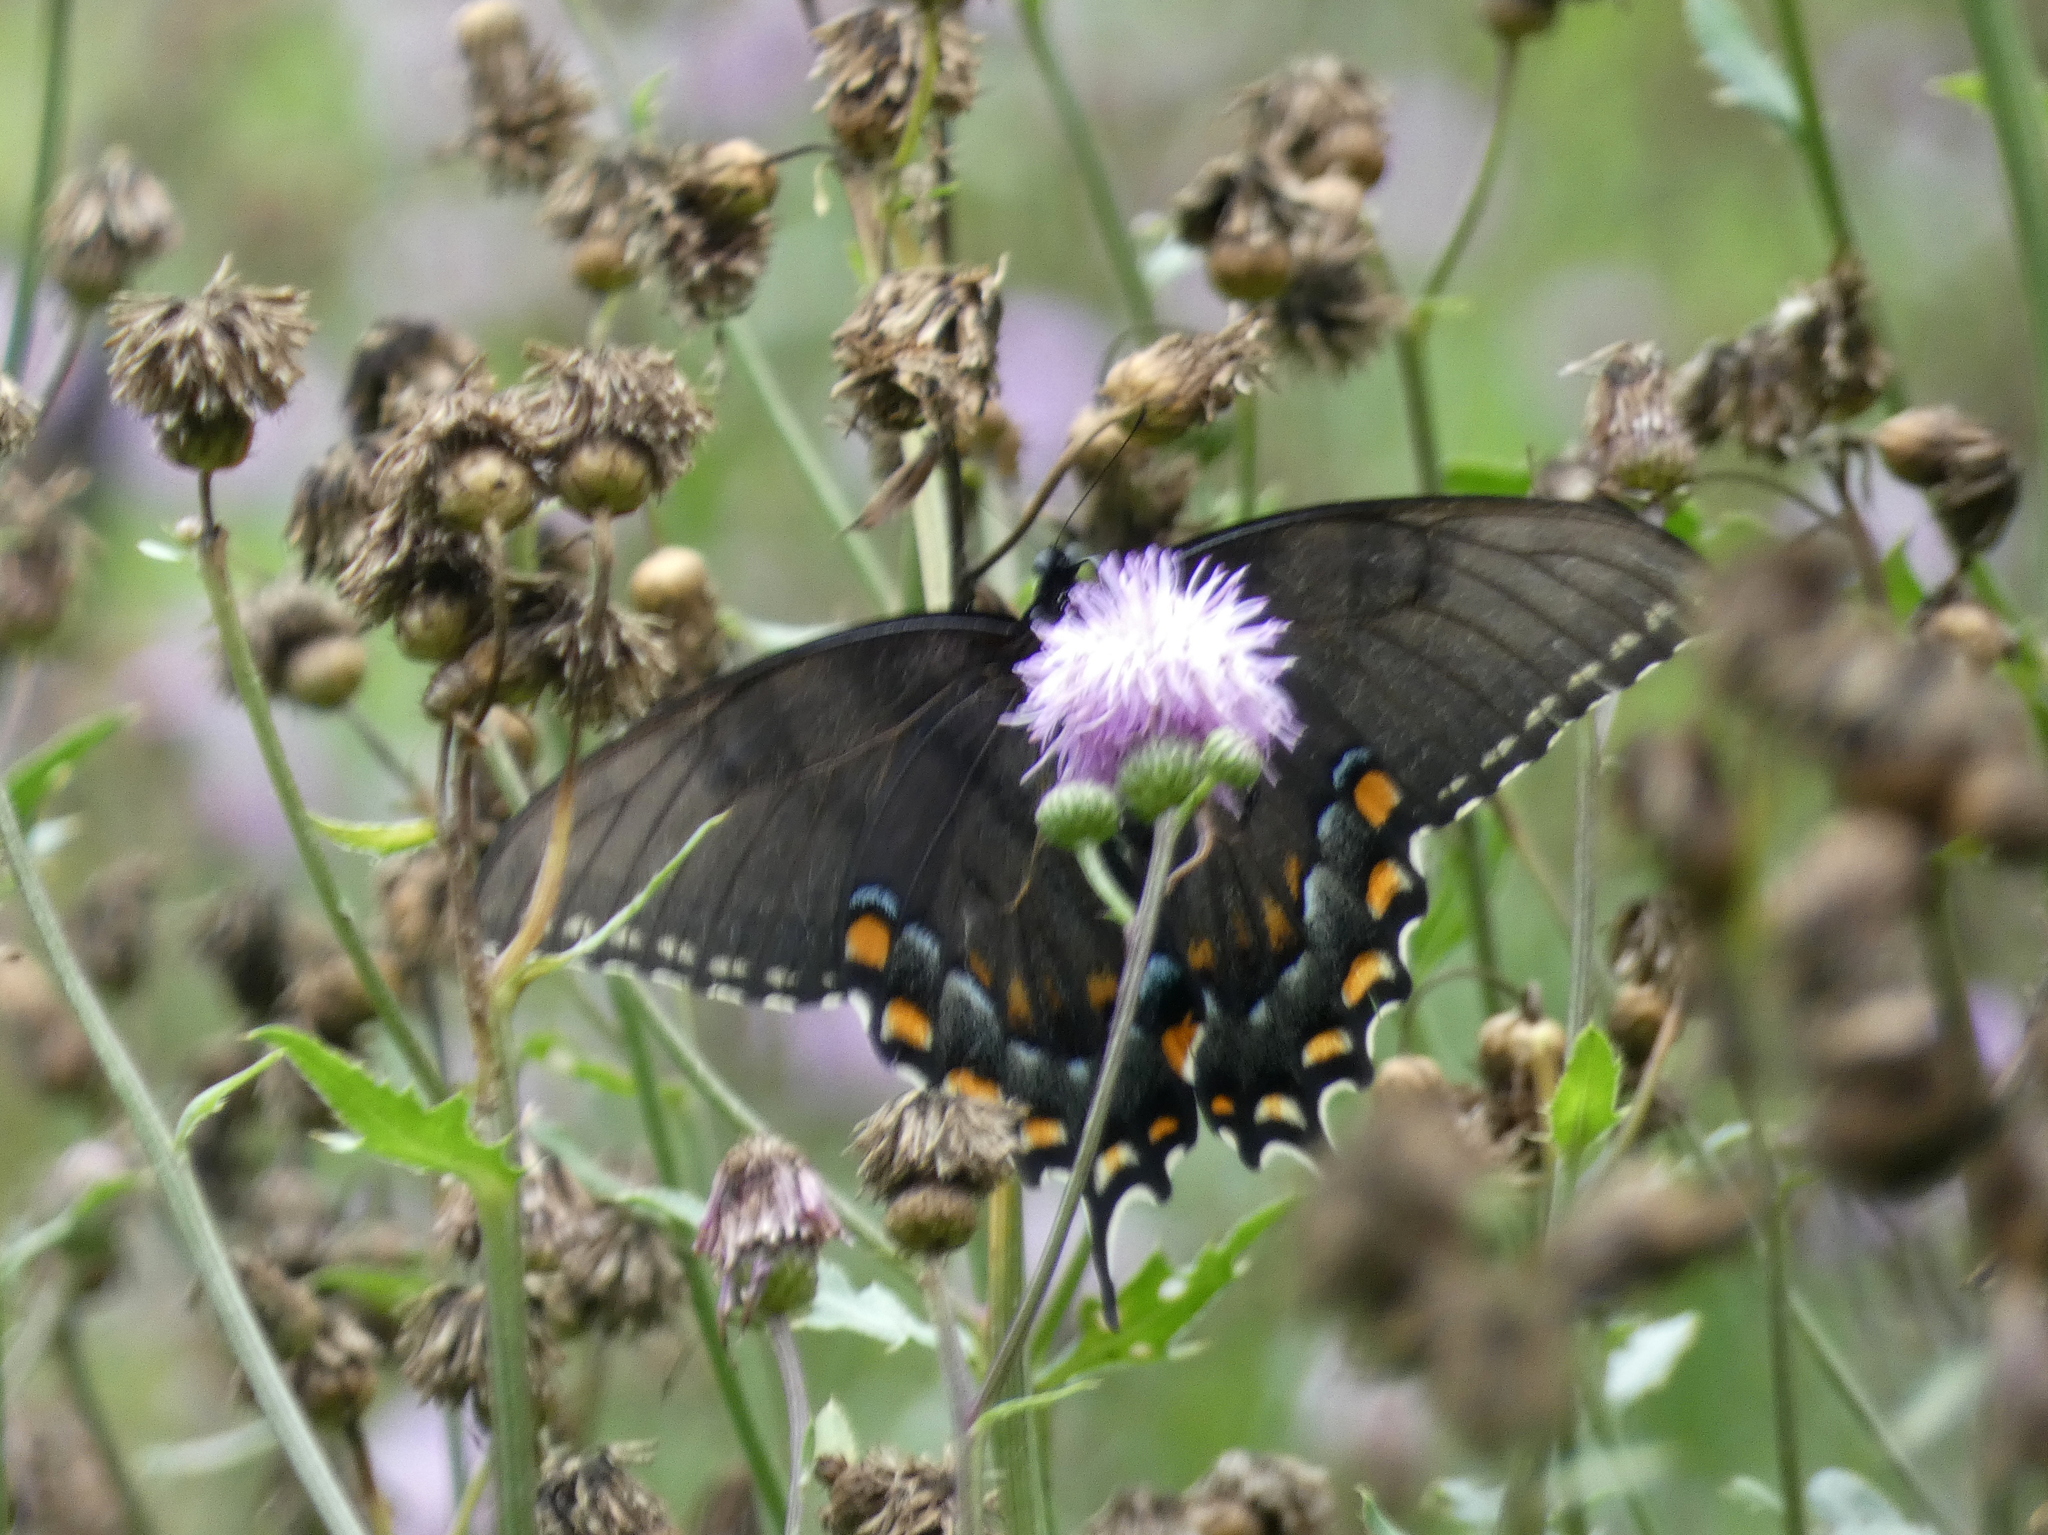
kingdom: Animalia
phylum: Arthropoda
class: Insecta
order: Lepidoptera
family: Papilionidae
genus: Papilio
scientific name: Papilio glaucus
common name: Tiger swallowtail
